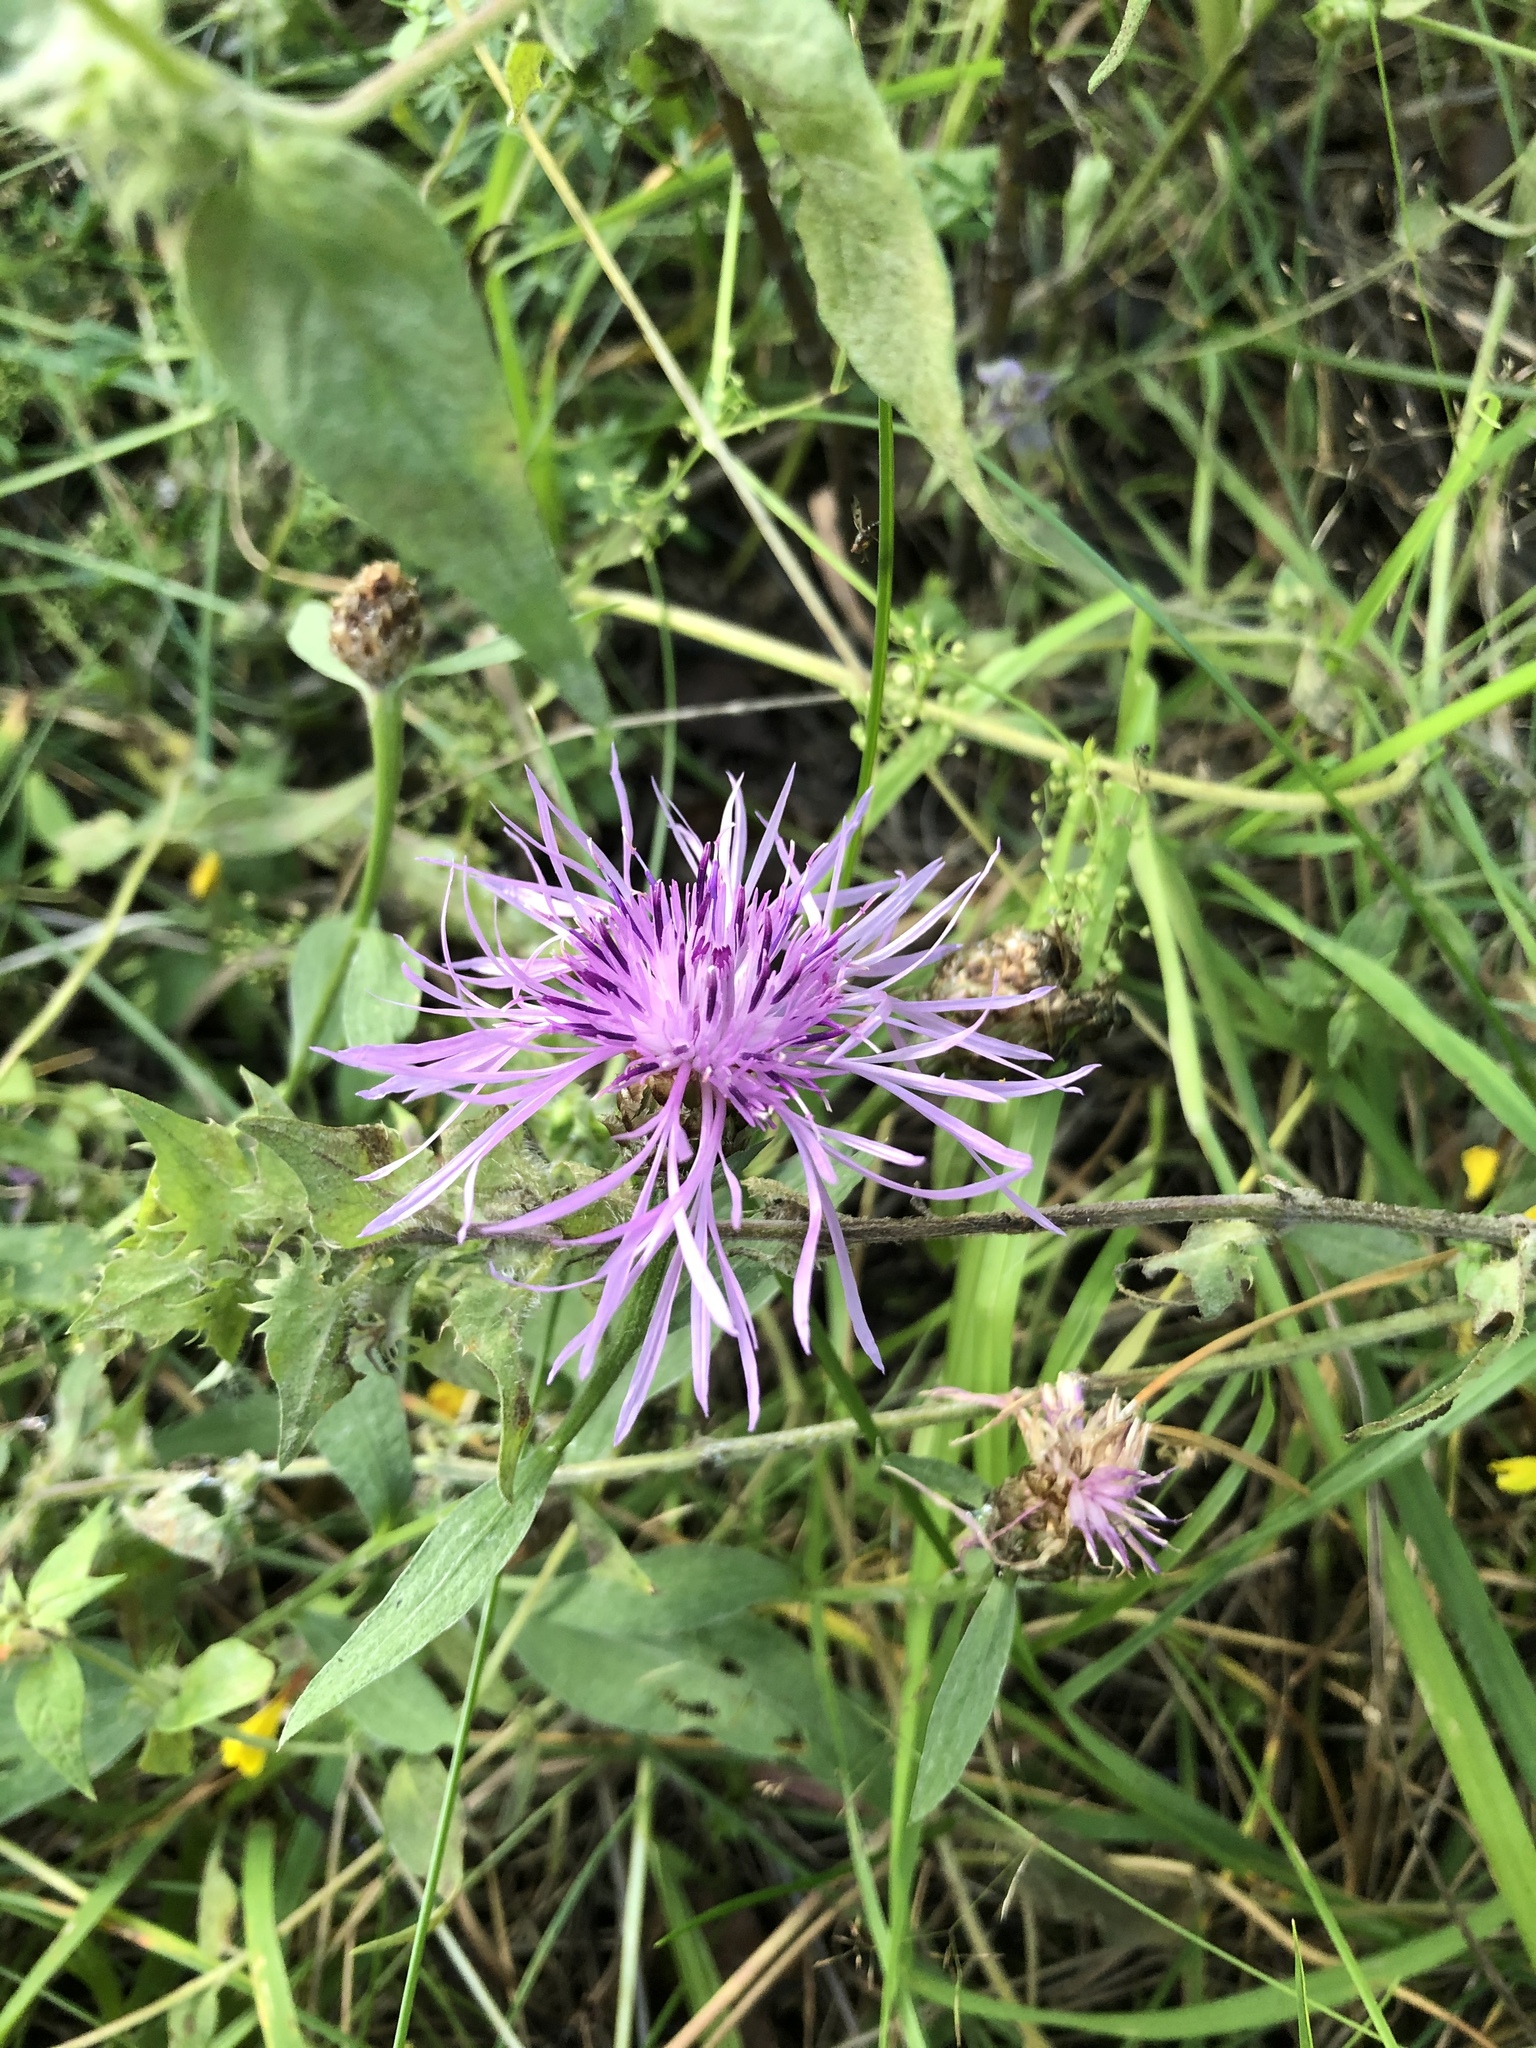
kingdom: Plantae
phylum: Tracheophyta
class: Magnoliopsida
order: Asterales
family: Asteraceae
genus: Centaurea
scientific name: Centaurea jacea
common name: Brown knapweed
